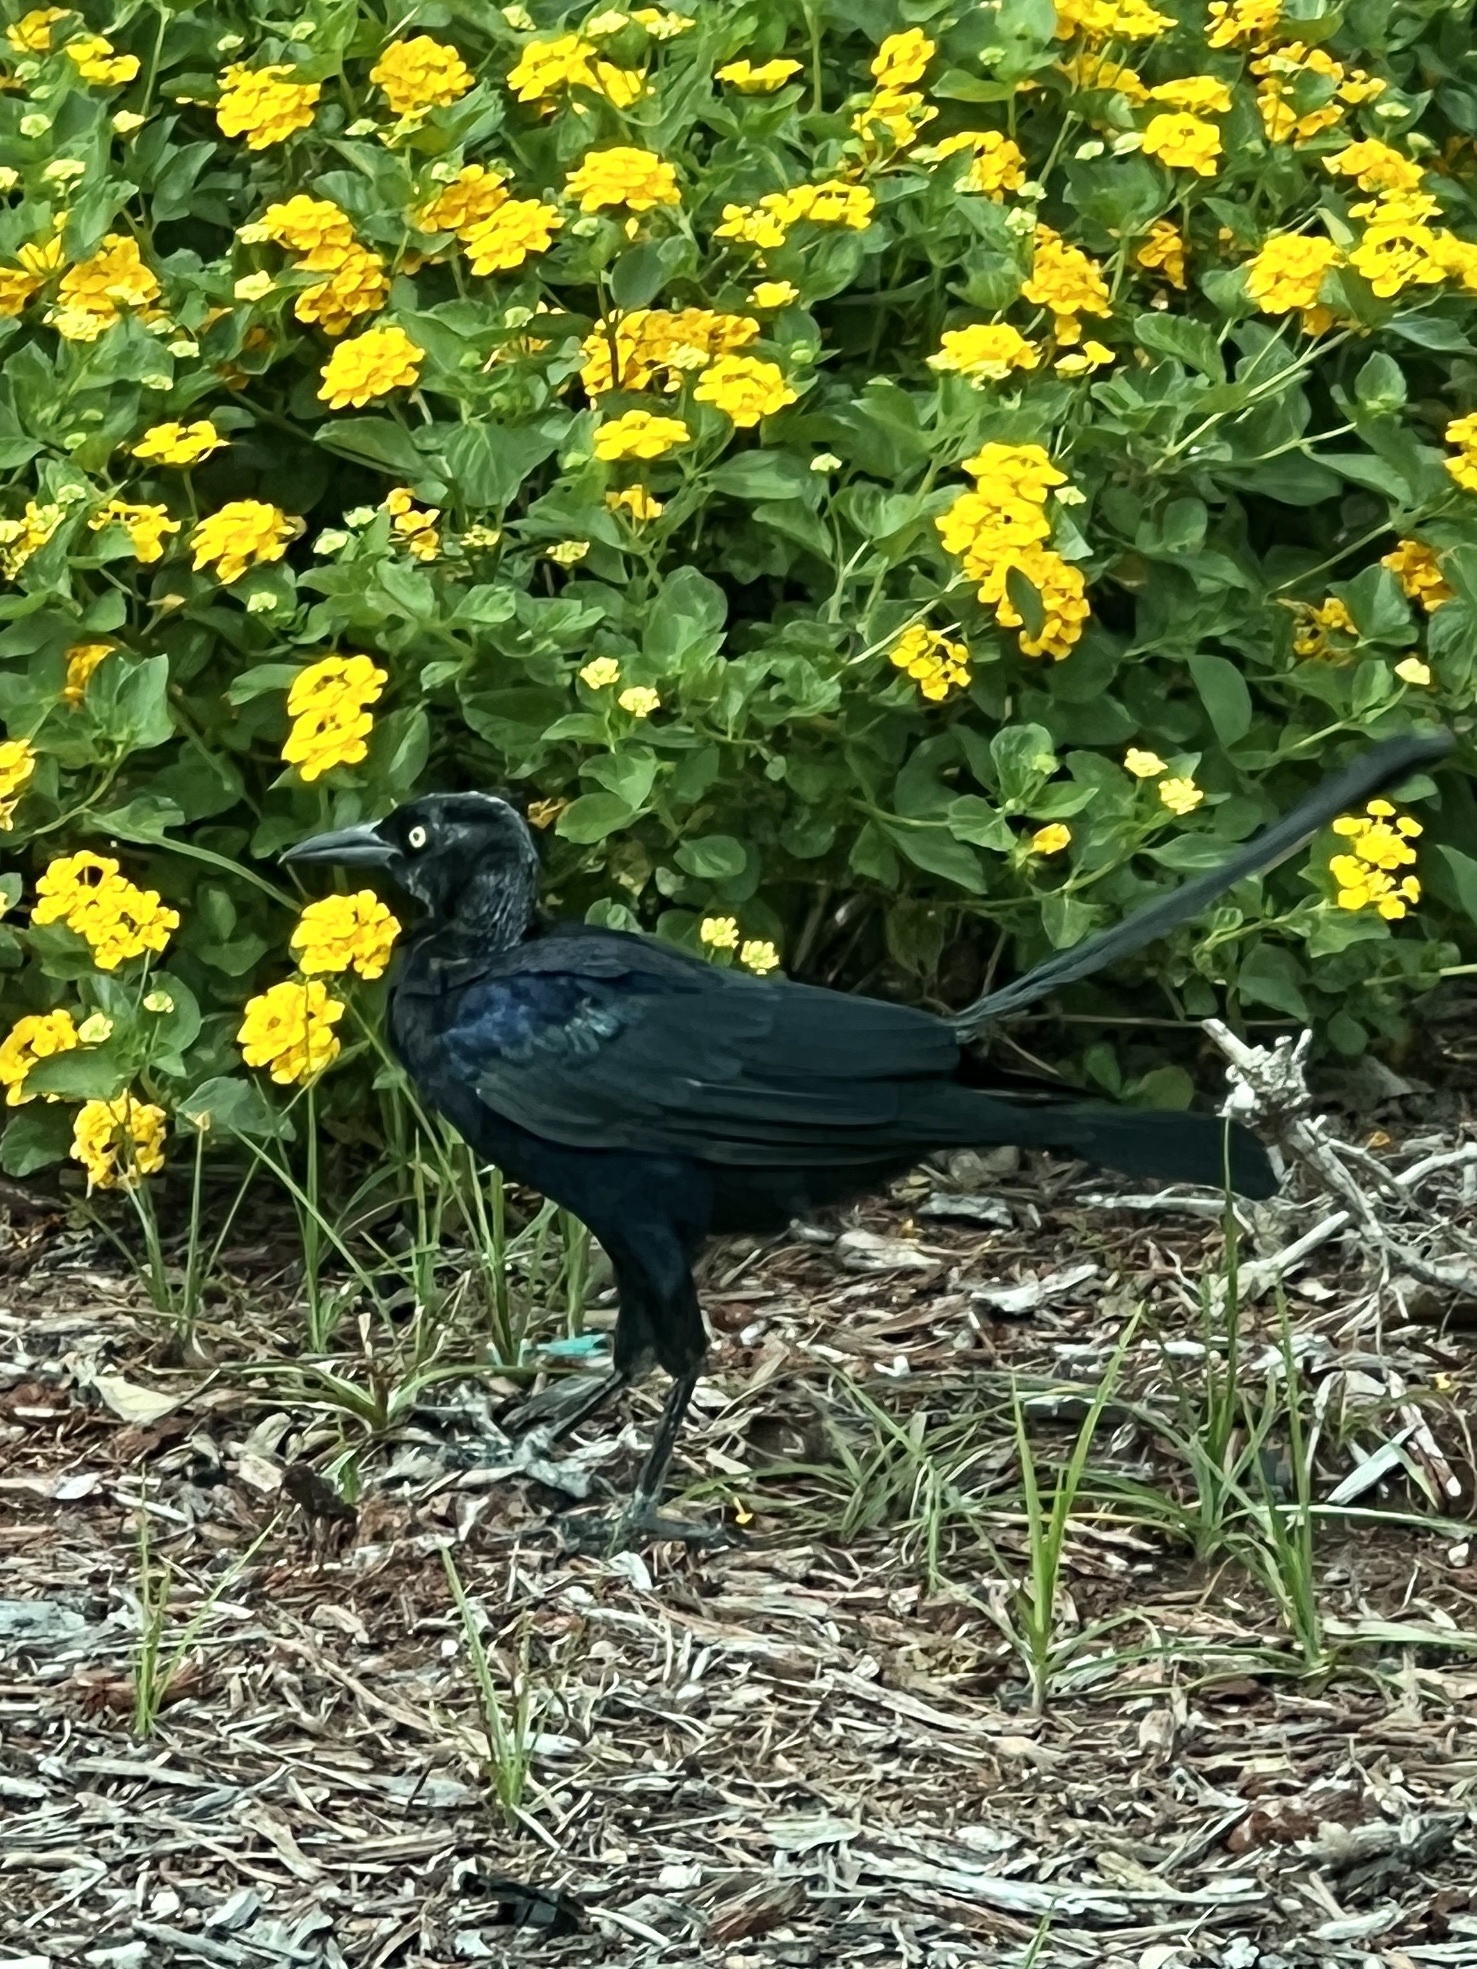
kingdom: Animalia
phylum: Chordata
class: Aves
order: Passeriformes
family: Icteridae
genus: Quiscalus
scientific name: Quiscalus mexicanus
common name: Great-tailed grackle
